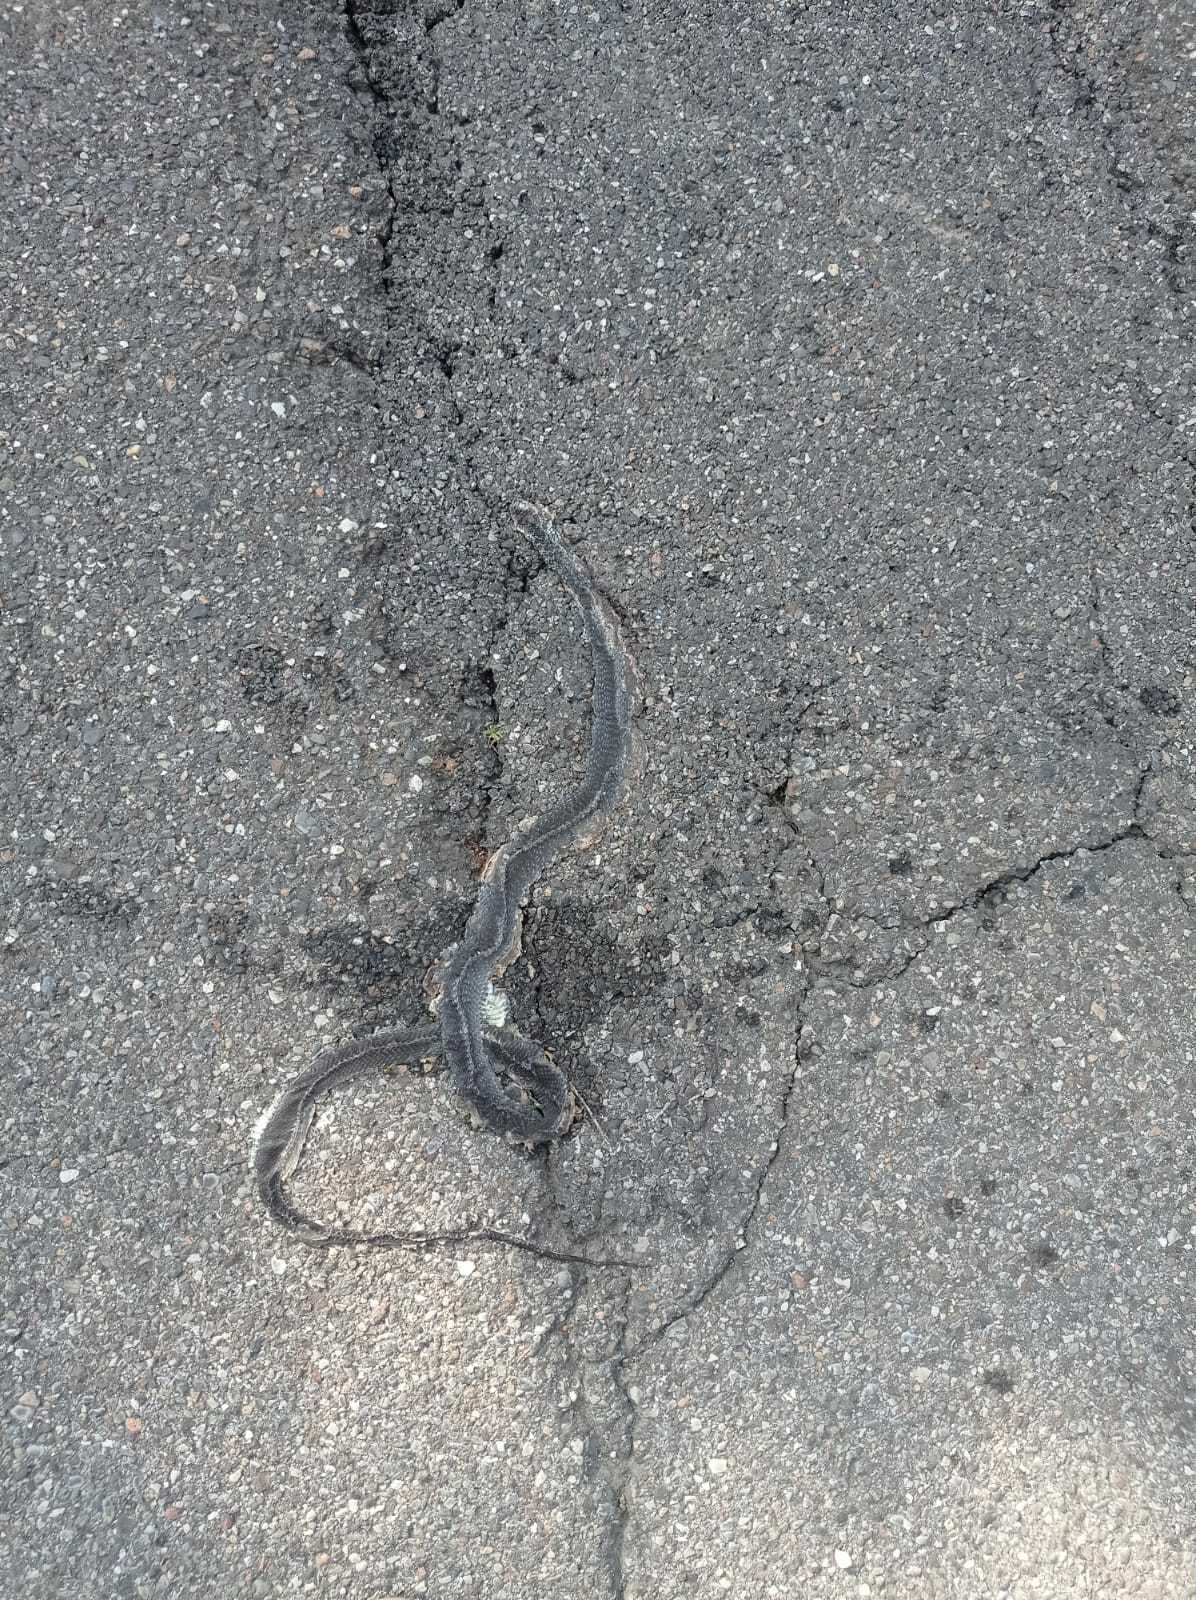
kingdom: Animalia
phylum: Chordata
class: Squamata
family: Colubridae
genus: Hierophis
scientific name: Hierophis viridiflavus
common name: Green whip snake
